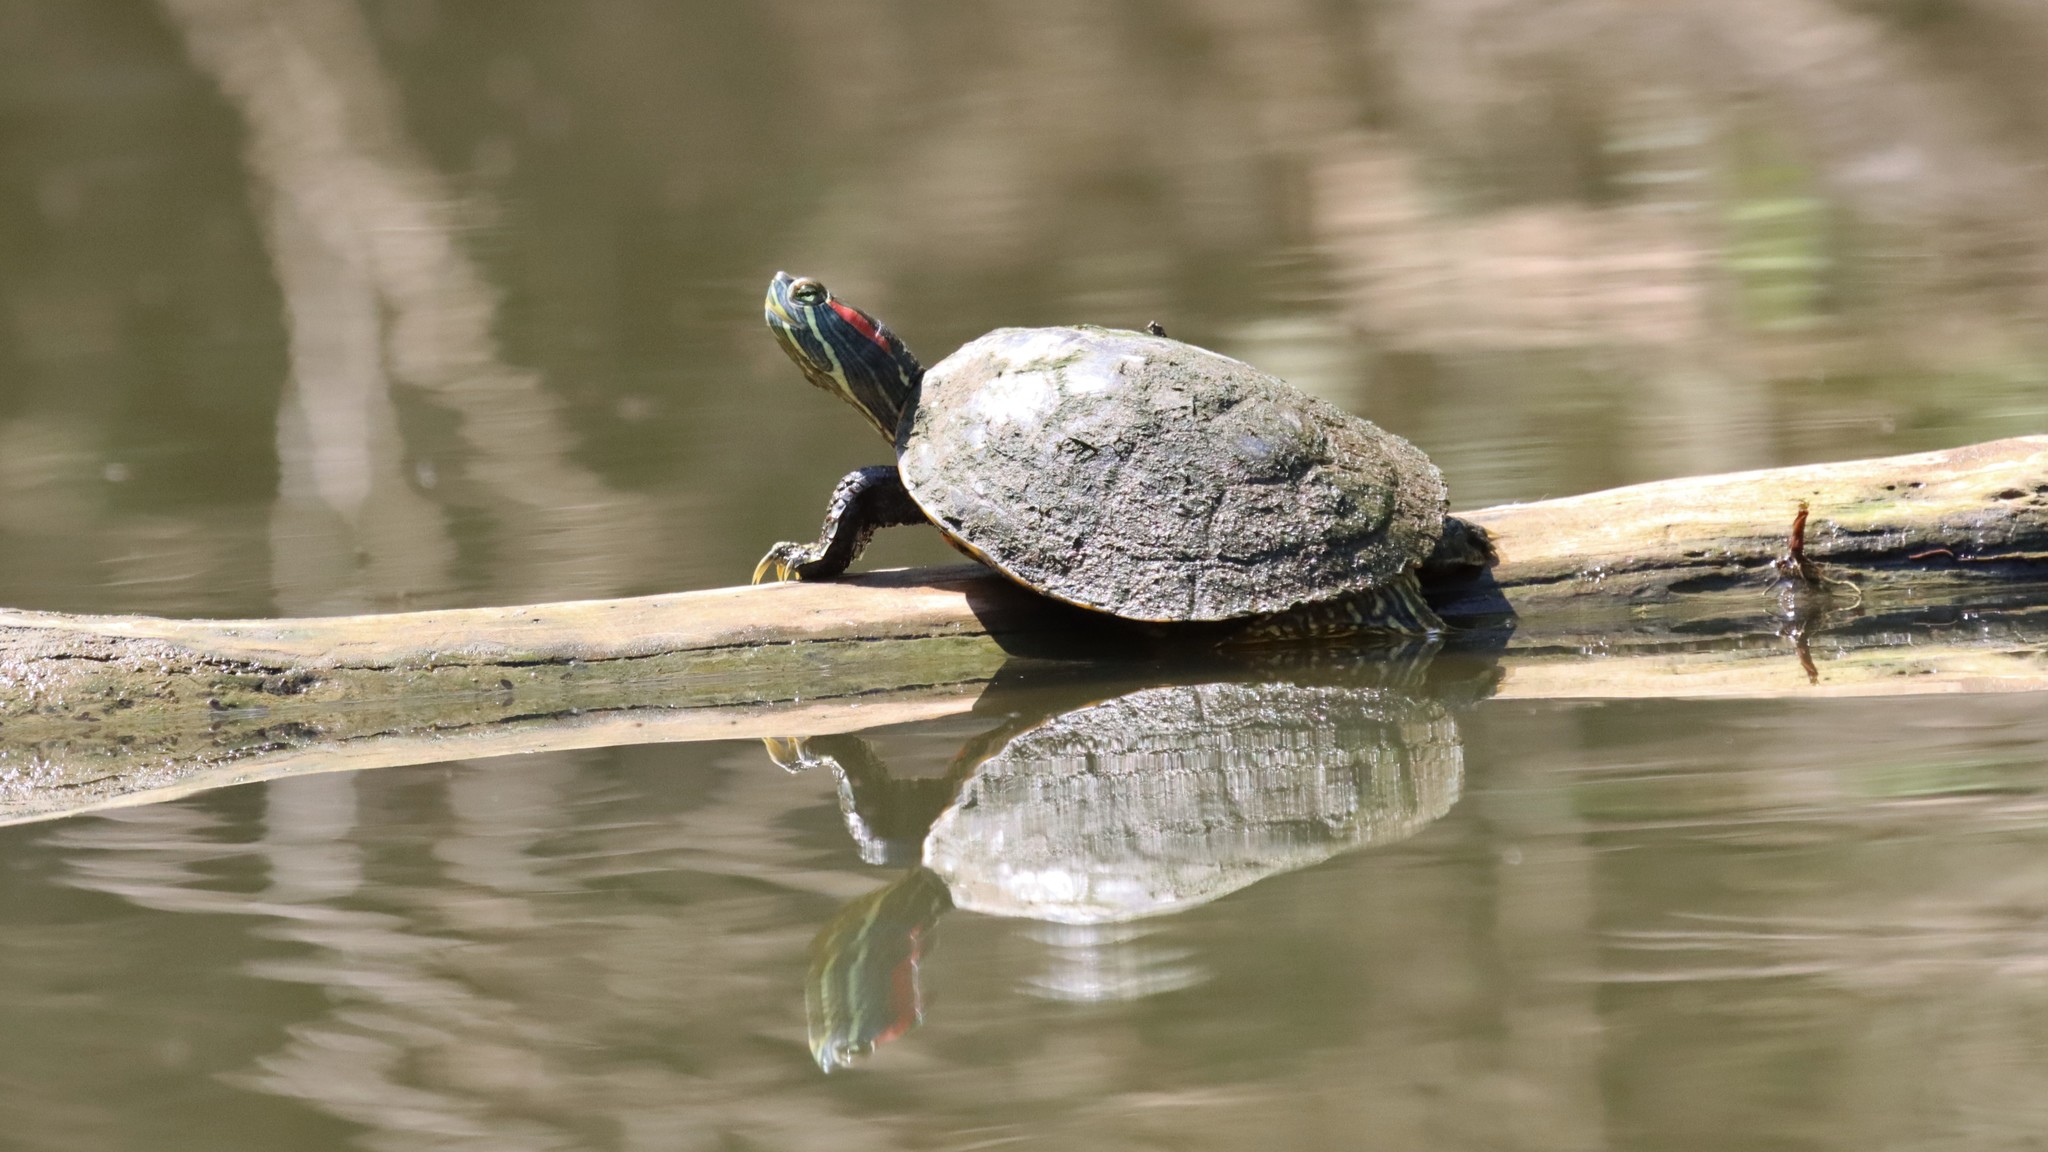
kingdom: Animalia
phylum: Chordata
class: Testudines
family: Emydidae
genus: Trachemys
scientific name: Trachemys scripta
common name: Slider
